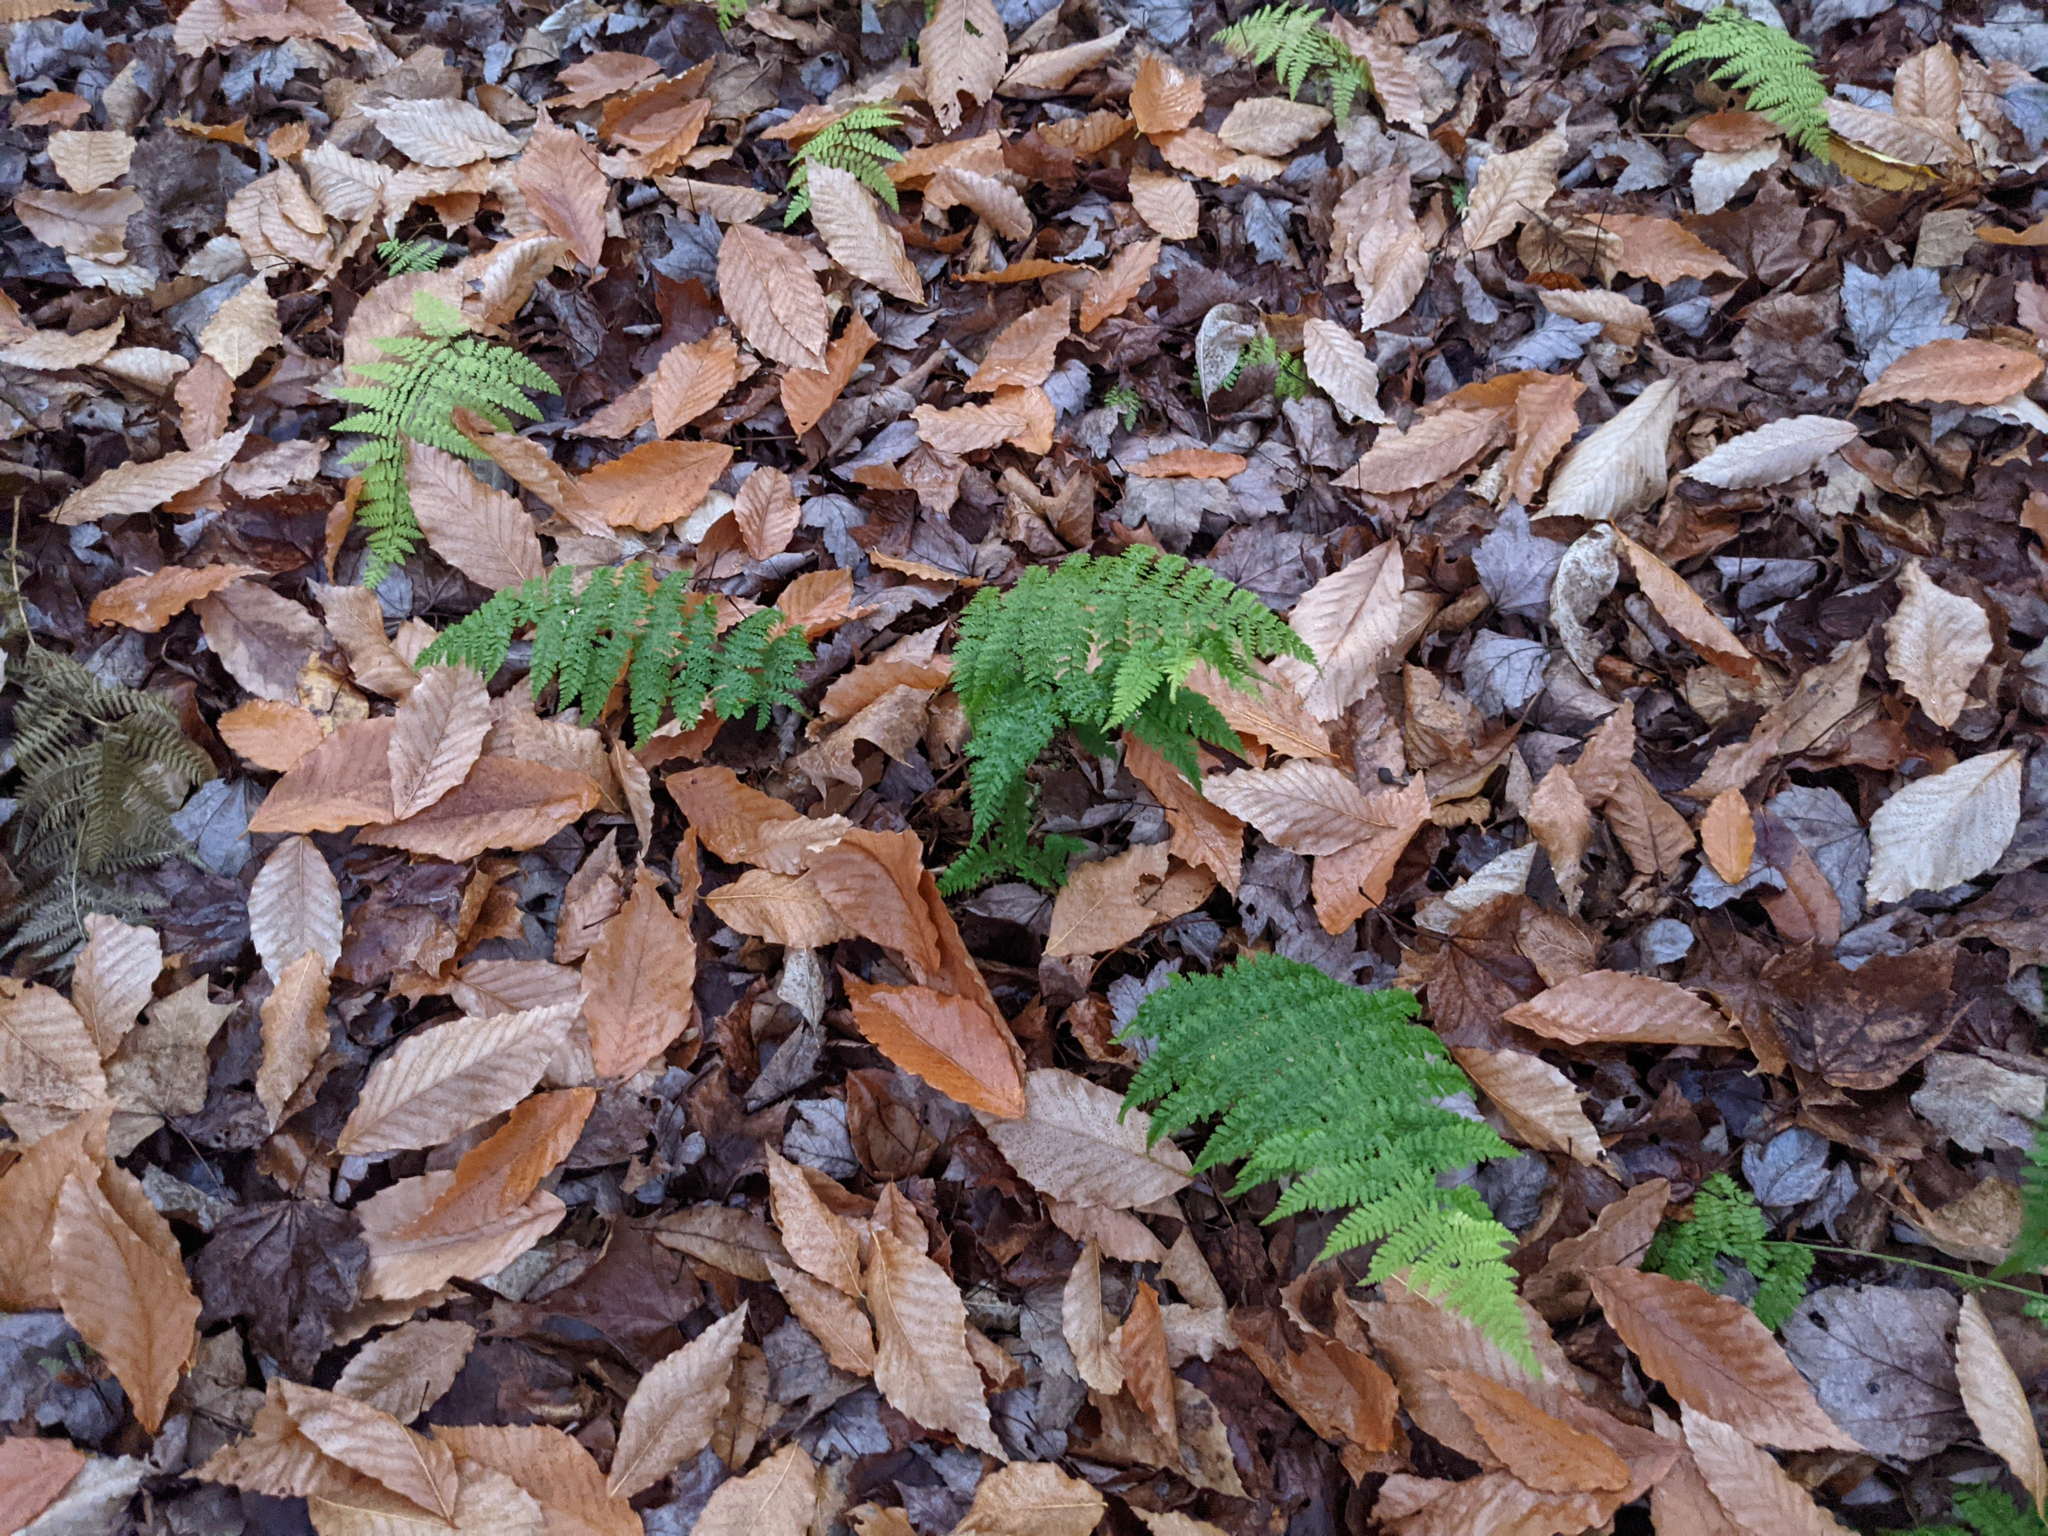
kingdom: Plantae
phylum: Tracheophyta
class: Magnoliopsida
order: Fagales
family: Fagaceae
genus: Fagus
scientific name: Fagus grandifolia
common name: American beech
